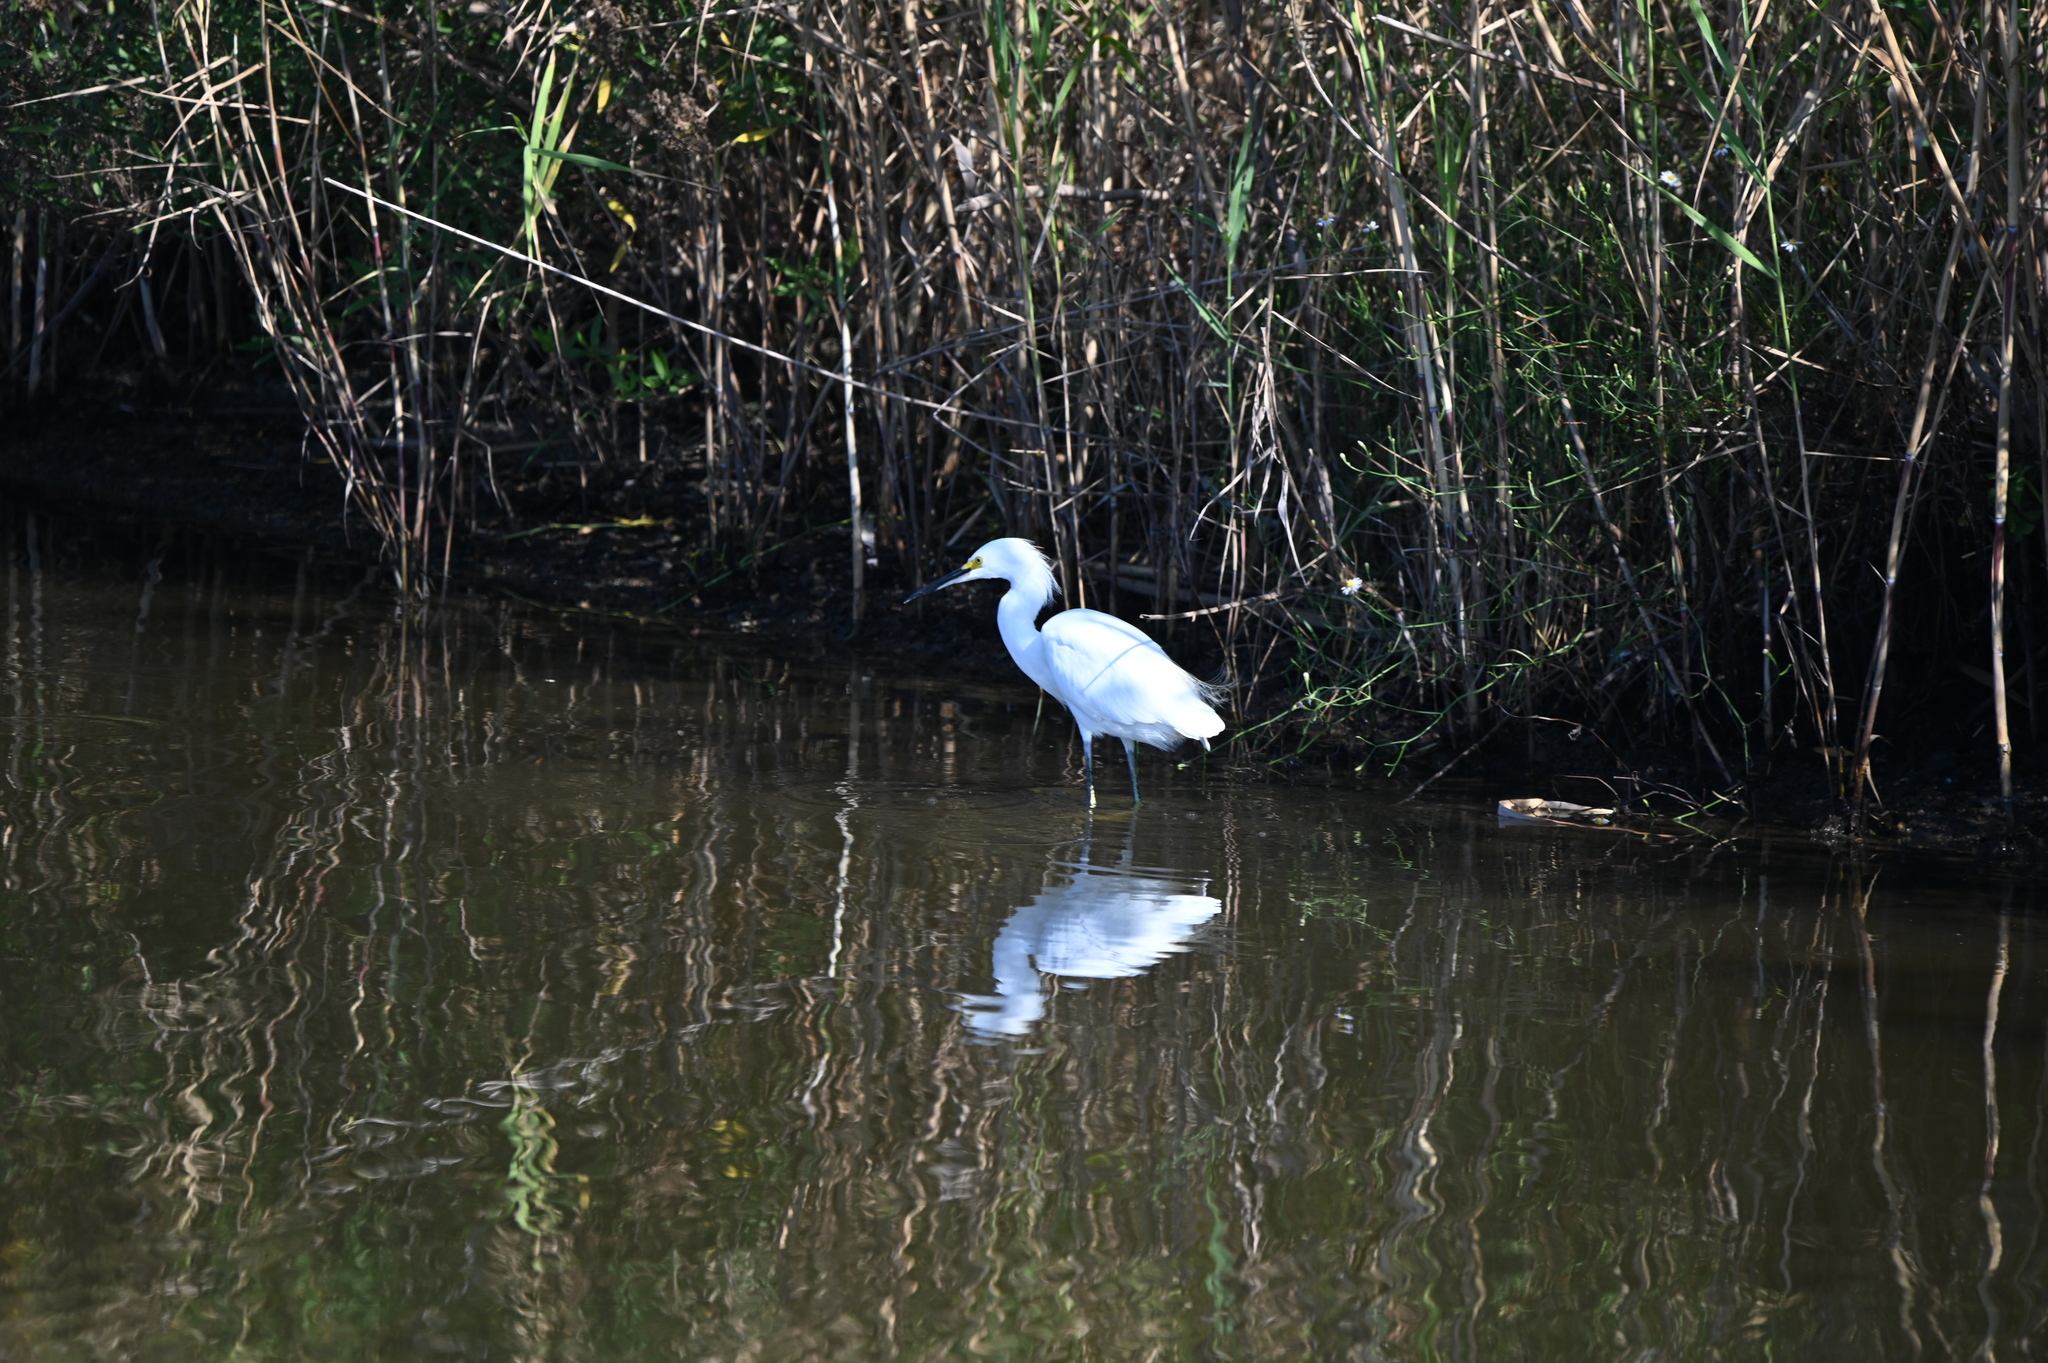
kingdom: Animalia
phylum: Chordata
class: Aves
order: Pelecaniformes
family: Ardeidae
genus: Egretta
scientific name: Egretta thula
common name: Snowy egret
